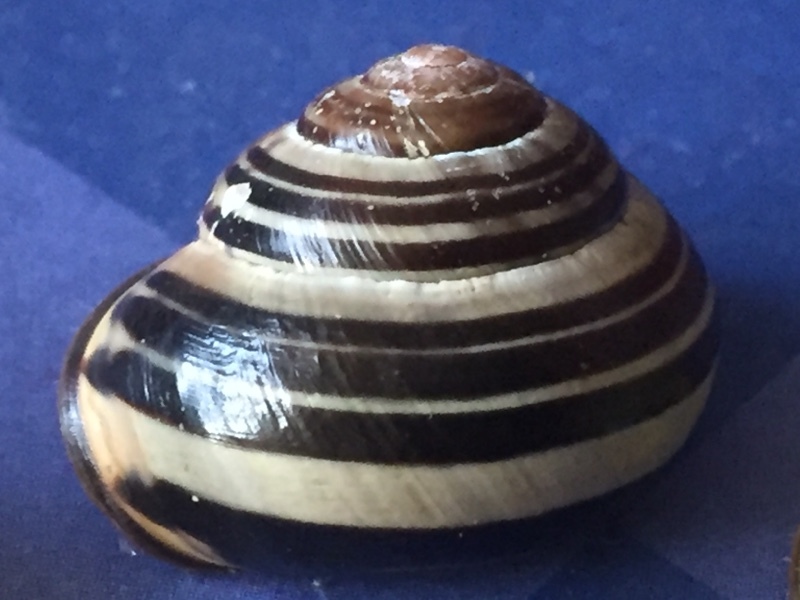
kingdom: Animalia
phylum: Mollusca
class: Gastropoda
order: Stylommatophora
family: Helicidae
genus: Cepaea
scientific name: Cepaea nemoralis
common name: Grovesnail
